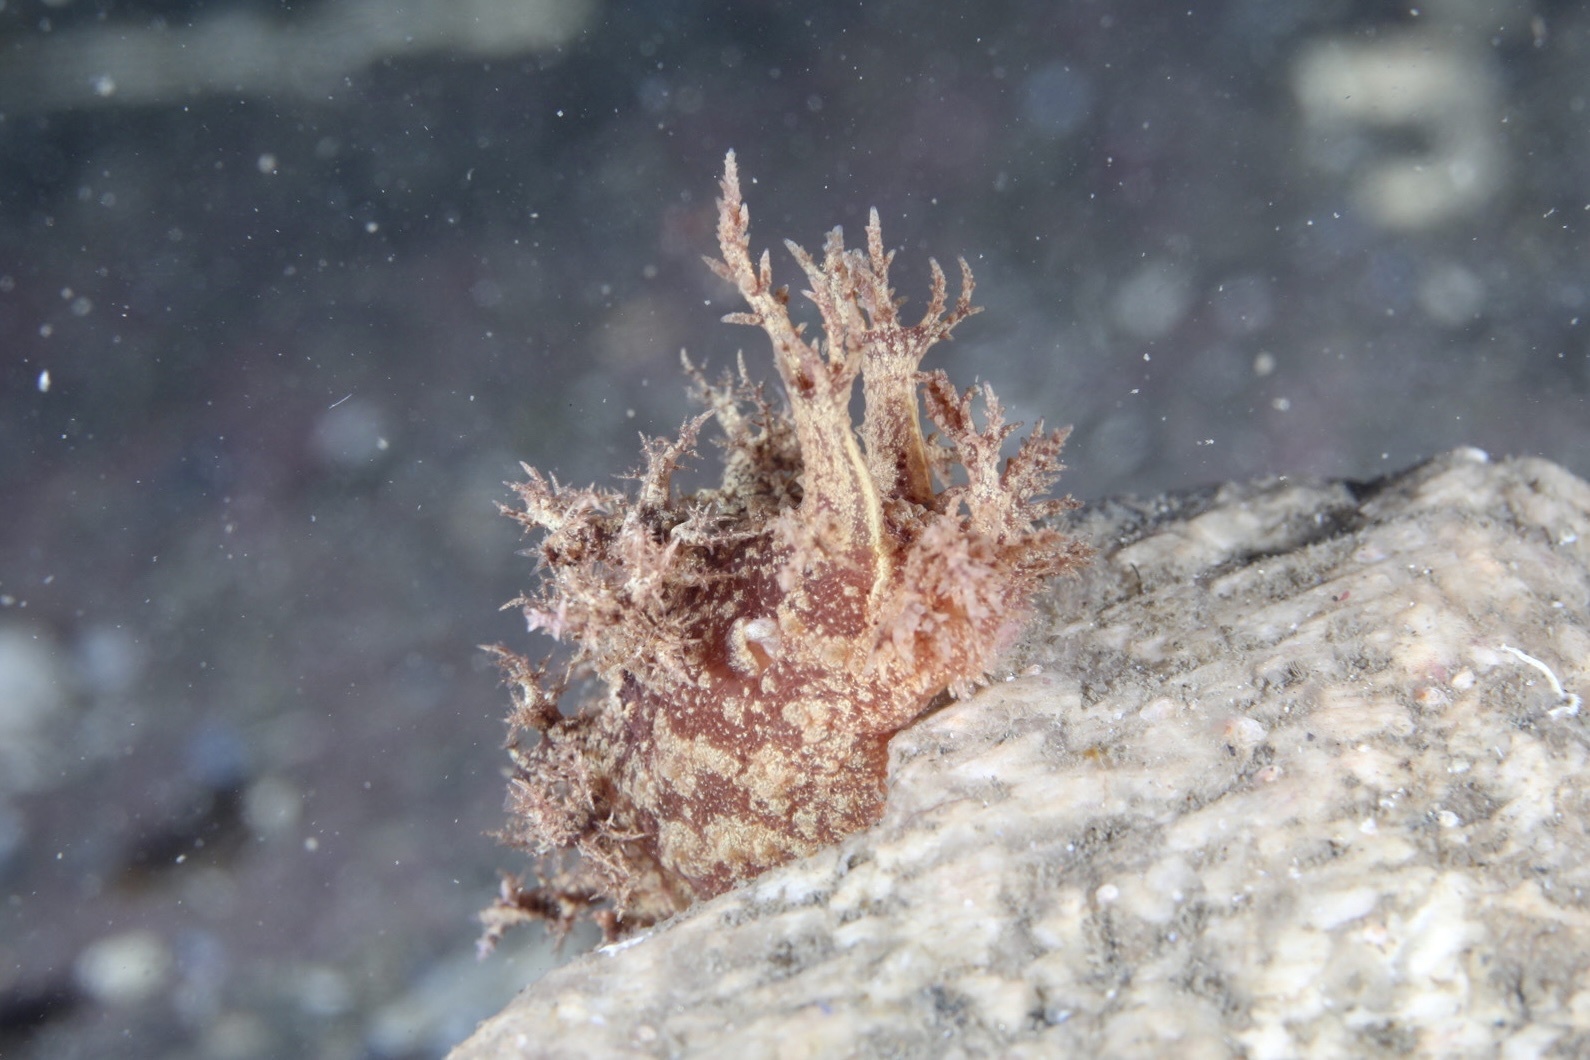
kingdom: Animalia
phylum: Mollusca
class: Gastropoda
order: Nudibranchia
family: Dendronotidae
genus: Dendronotus
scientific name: Dendronotus europaeus
